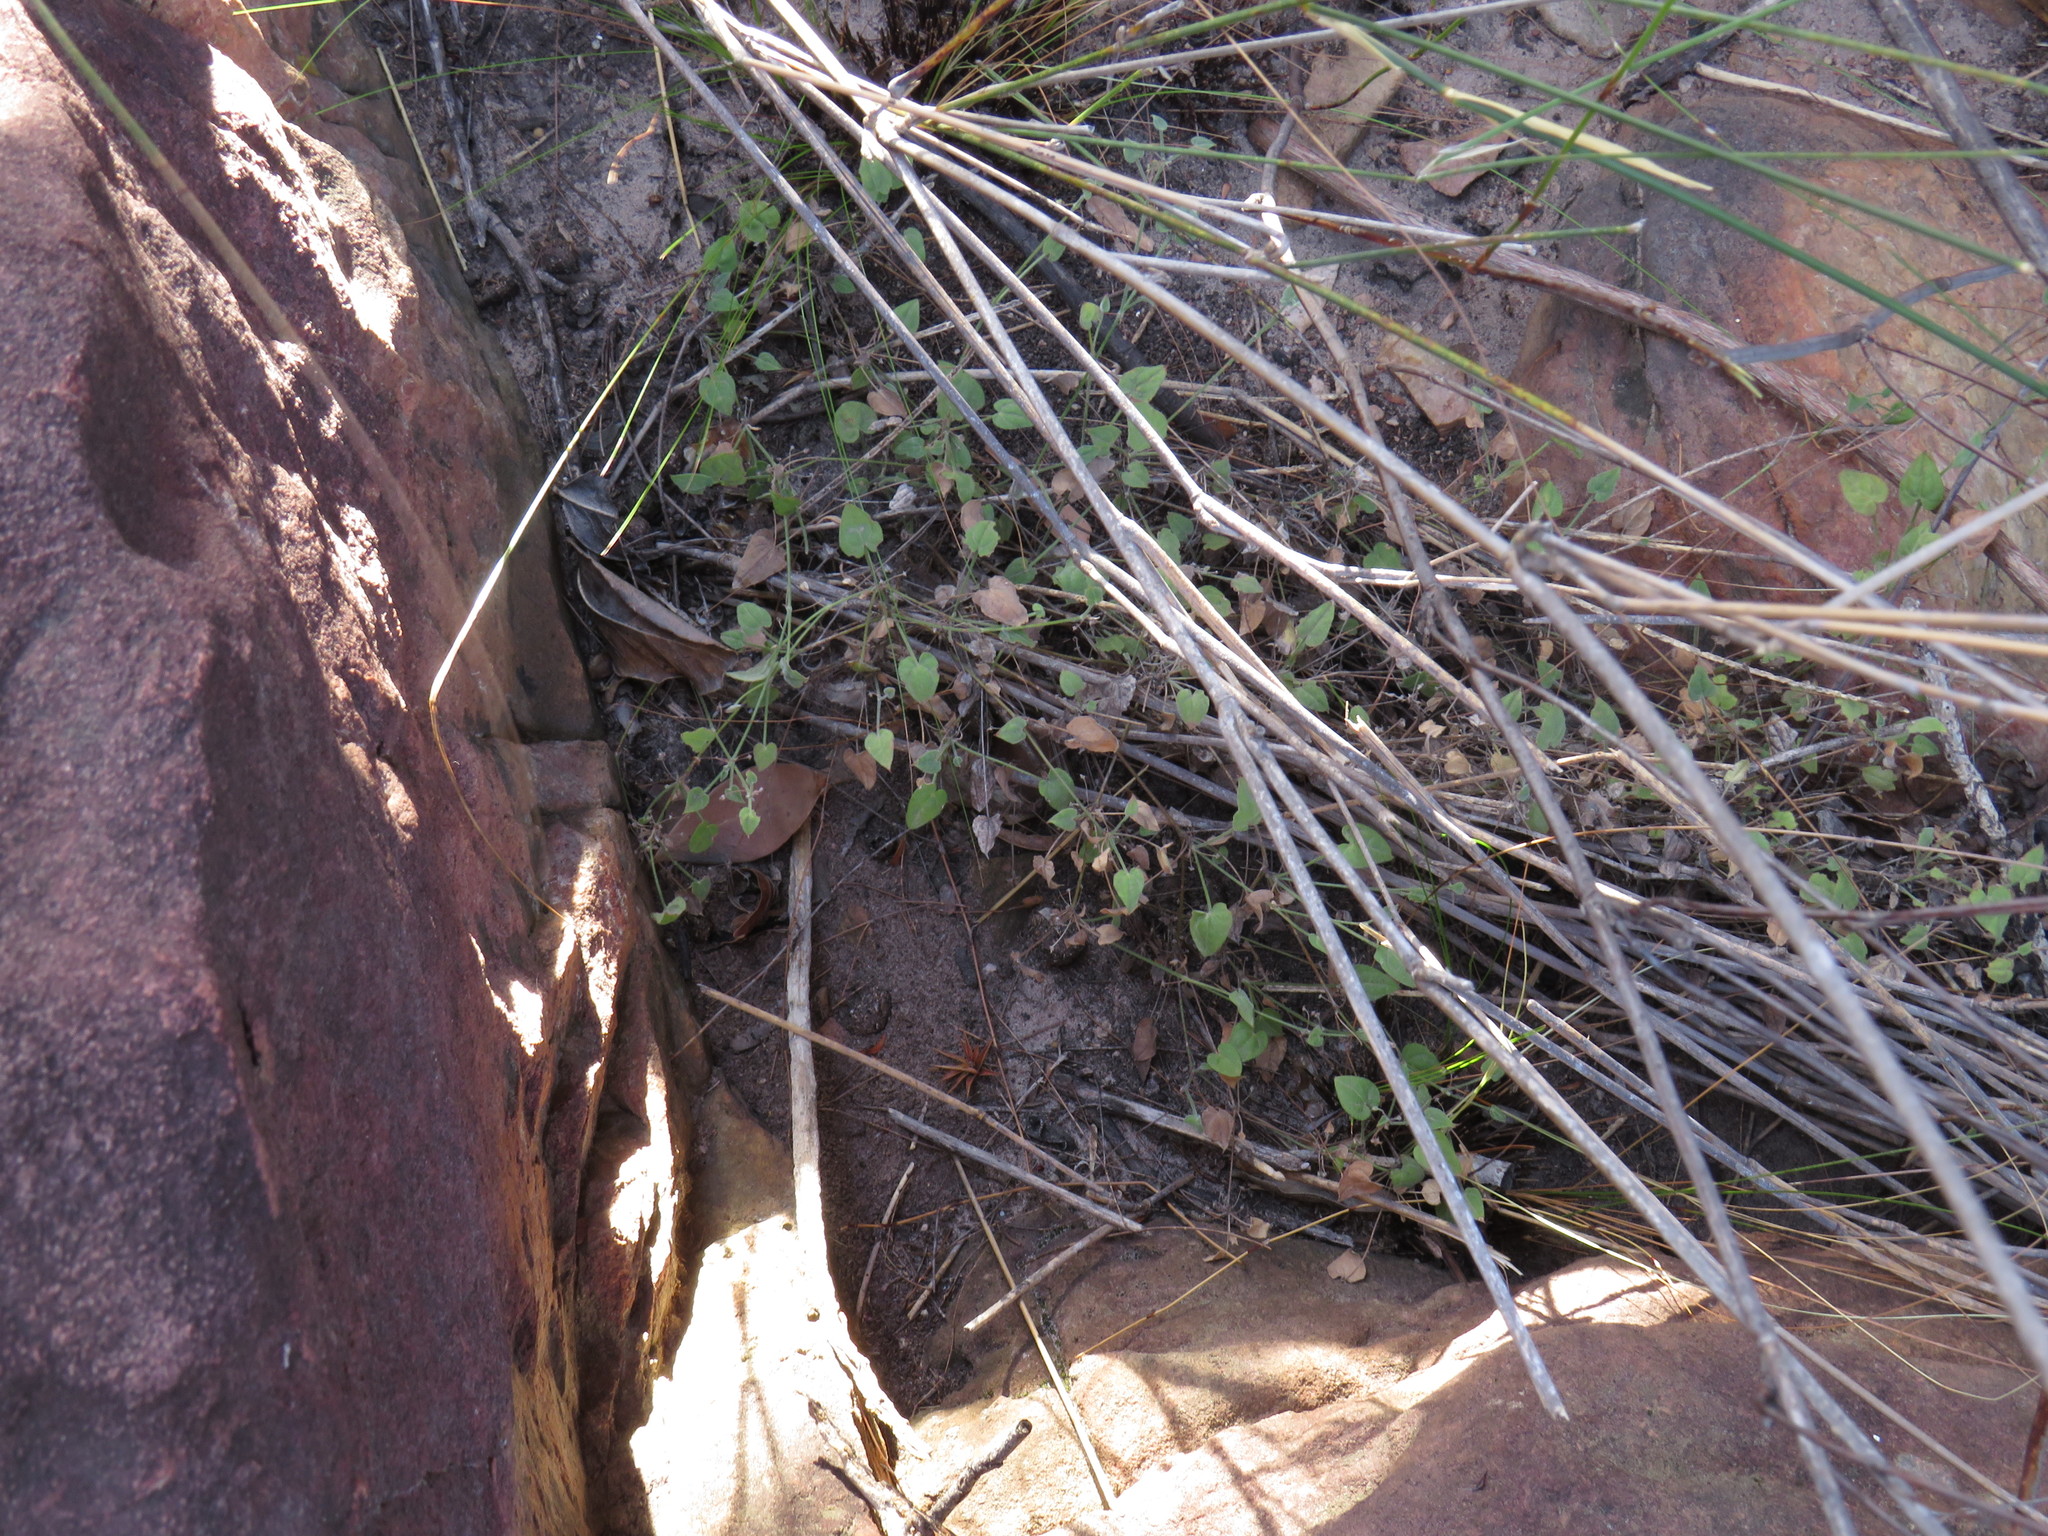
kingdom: Plantae
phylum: Tracheophyta
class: Magnoliopsida
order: Apiales
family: Apiaceae
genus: Centella
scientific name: Centella villosa
